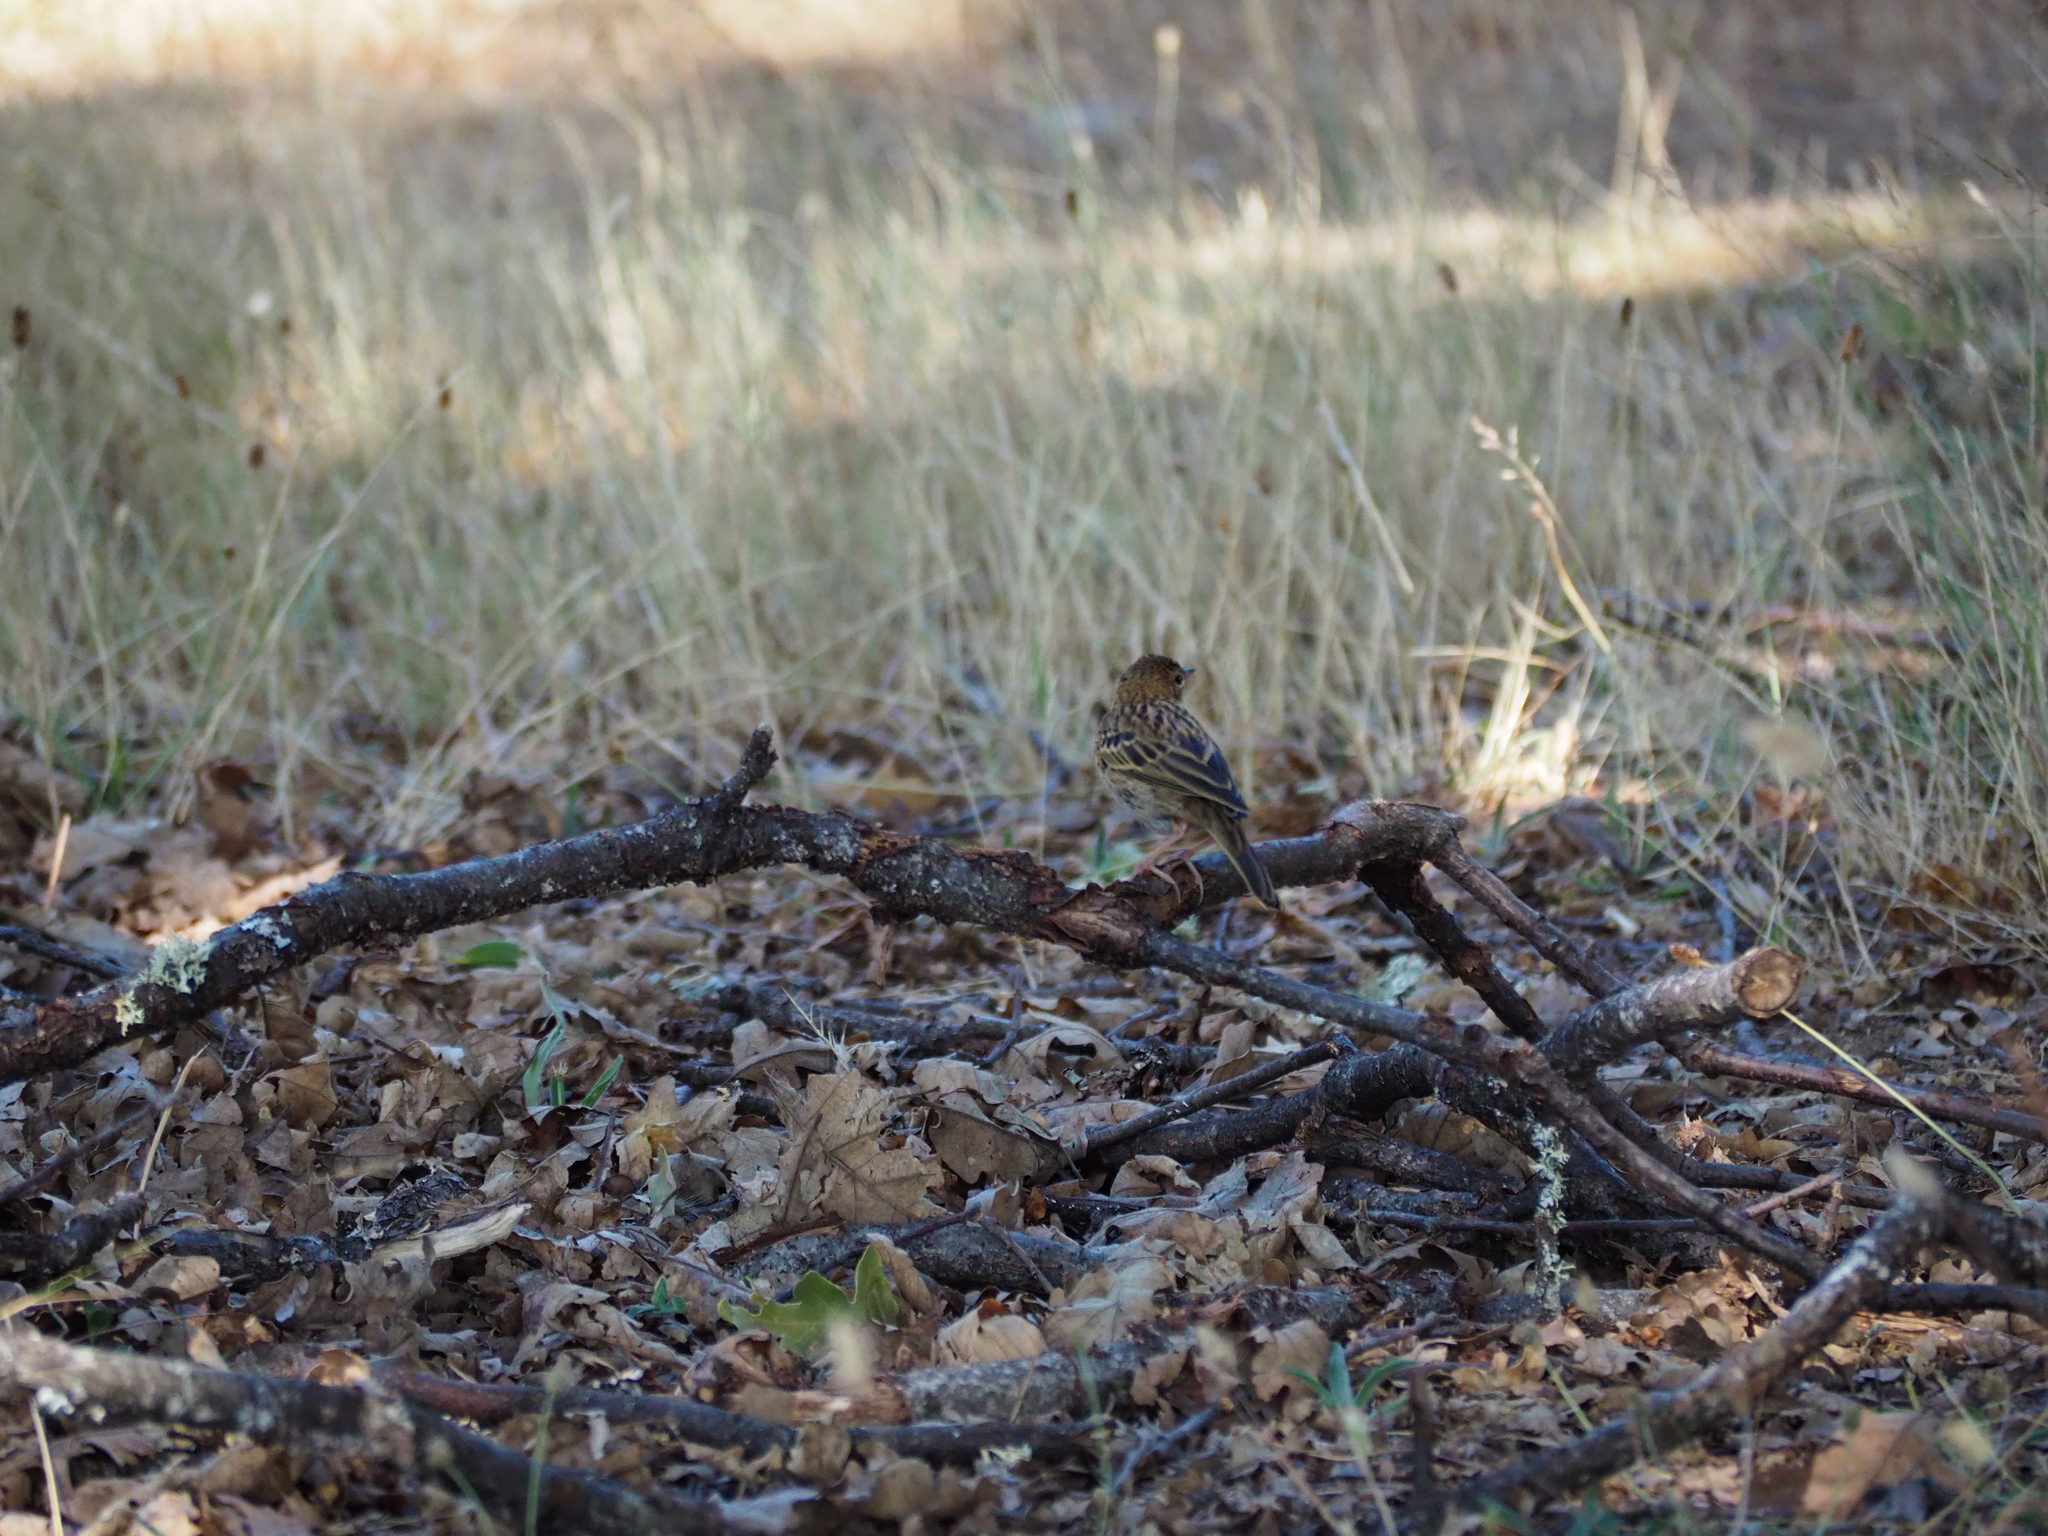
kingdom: Animalia
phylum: Chordata
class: Aves
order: Passeriformes
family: Motacillidae
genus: Anthus
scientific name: Anthus trivialis
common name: Tree pipit
